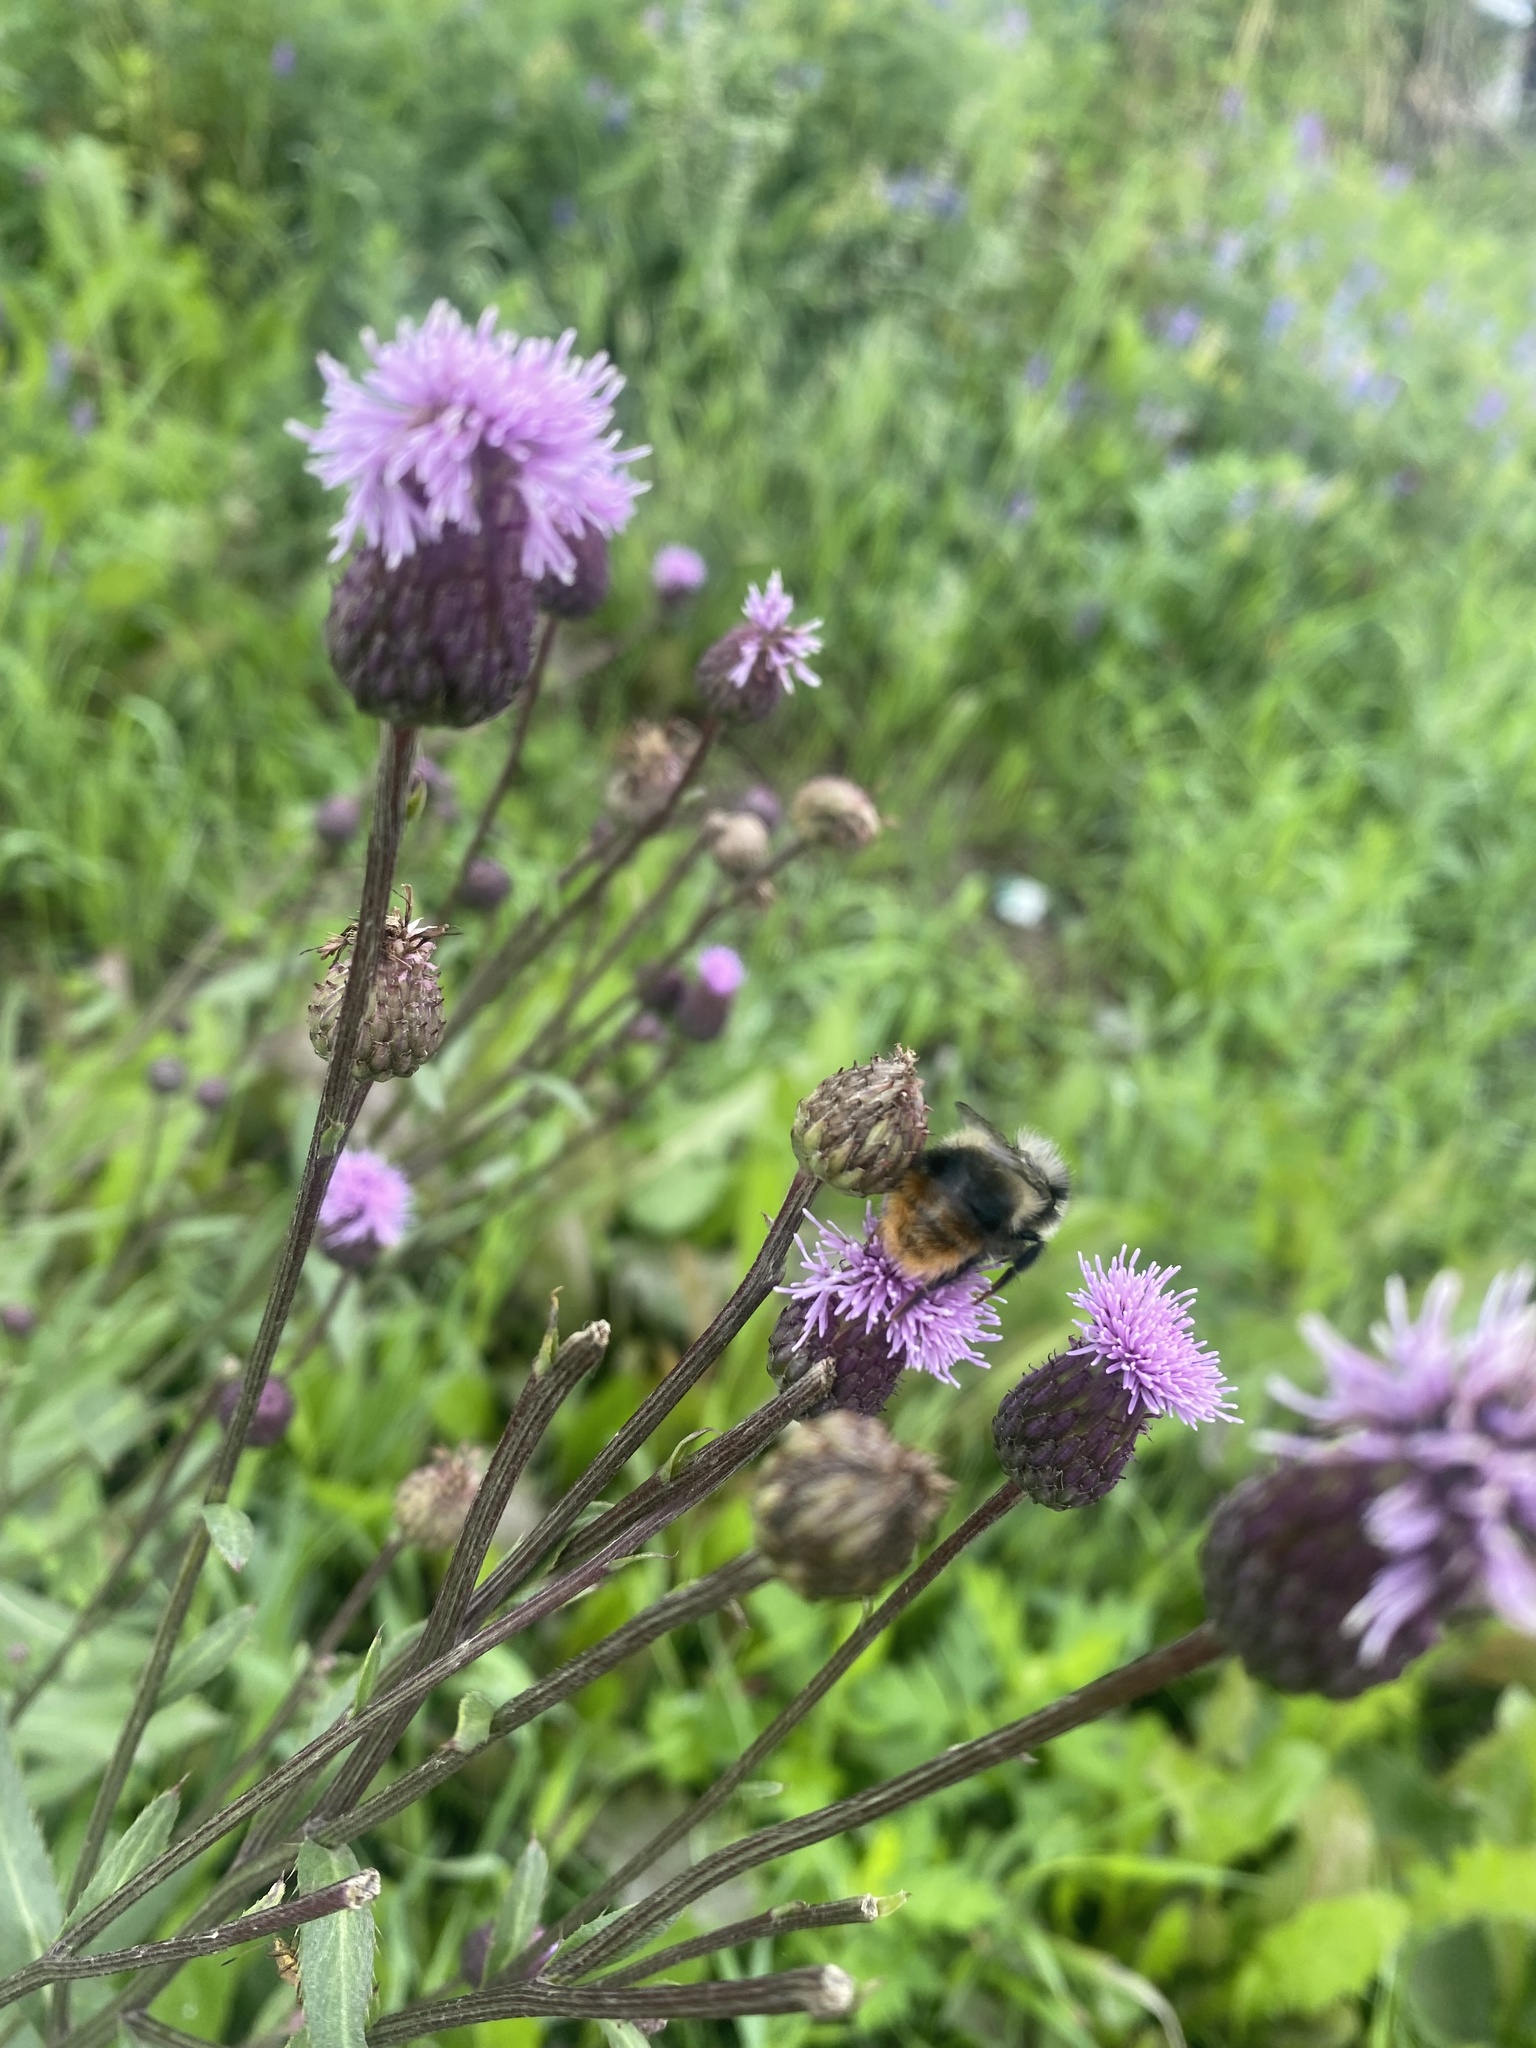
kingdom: Animalia
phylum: Arthropoda
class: Insecta
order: Hymenoptera
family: Apidae
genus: Bombus
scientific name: Bombus sichelii
